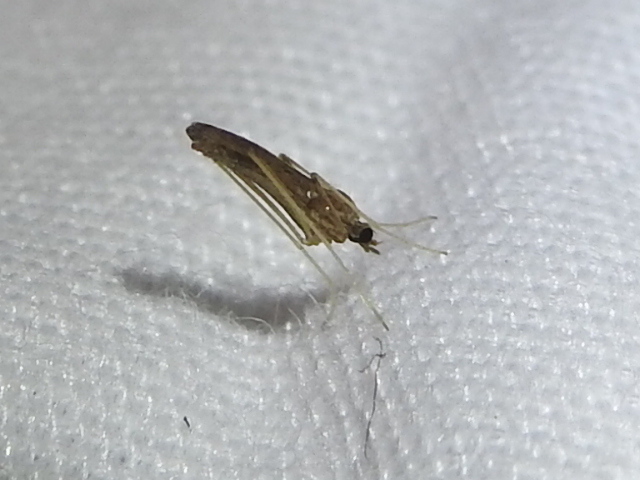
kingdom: Animalia
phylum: Arthropoda
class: Insecta
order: Diptera
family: Limoniidae
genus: Erioptera
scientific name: Erioptera tantilla
